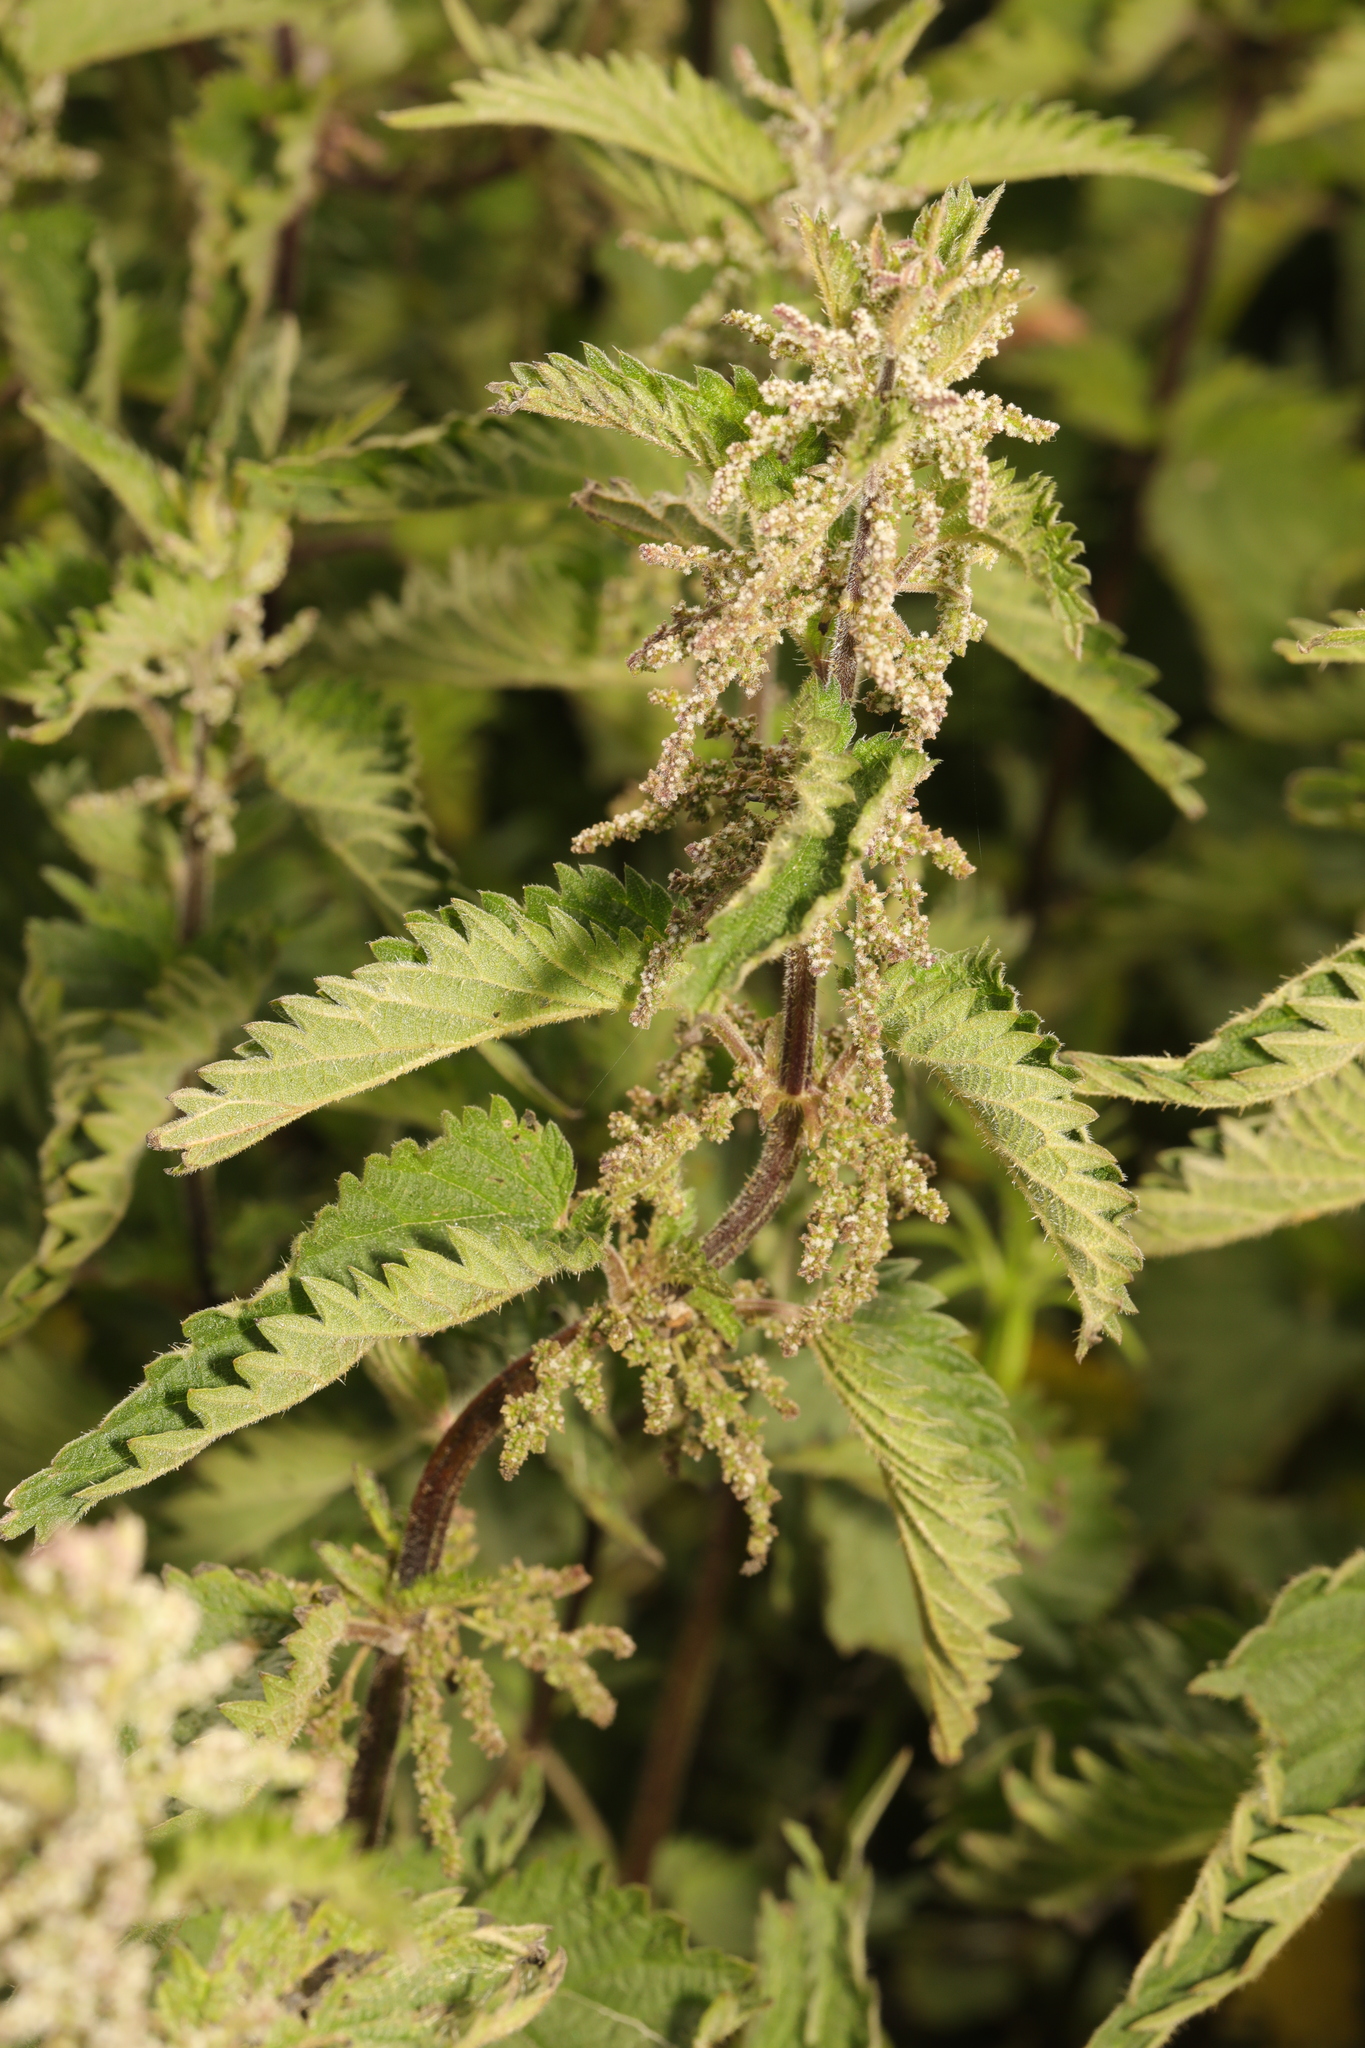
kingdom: Plantae
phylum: Tracheophyta
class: Magnoliopsida
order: Rosales
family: Urticaceae
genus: Urtica
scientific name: Urtica dioica
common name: Common nettle
